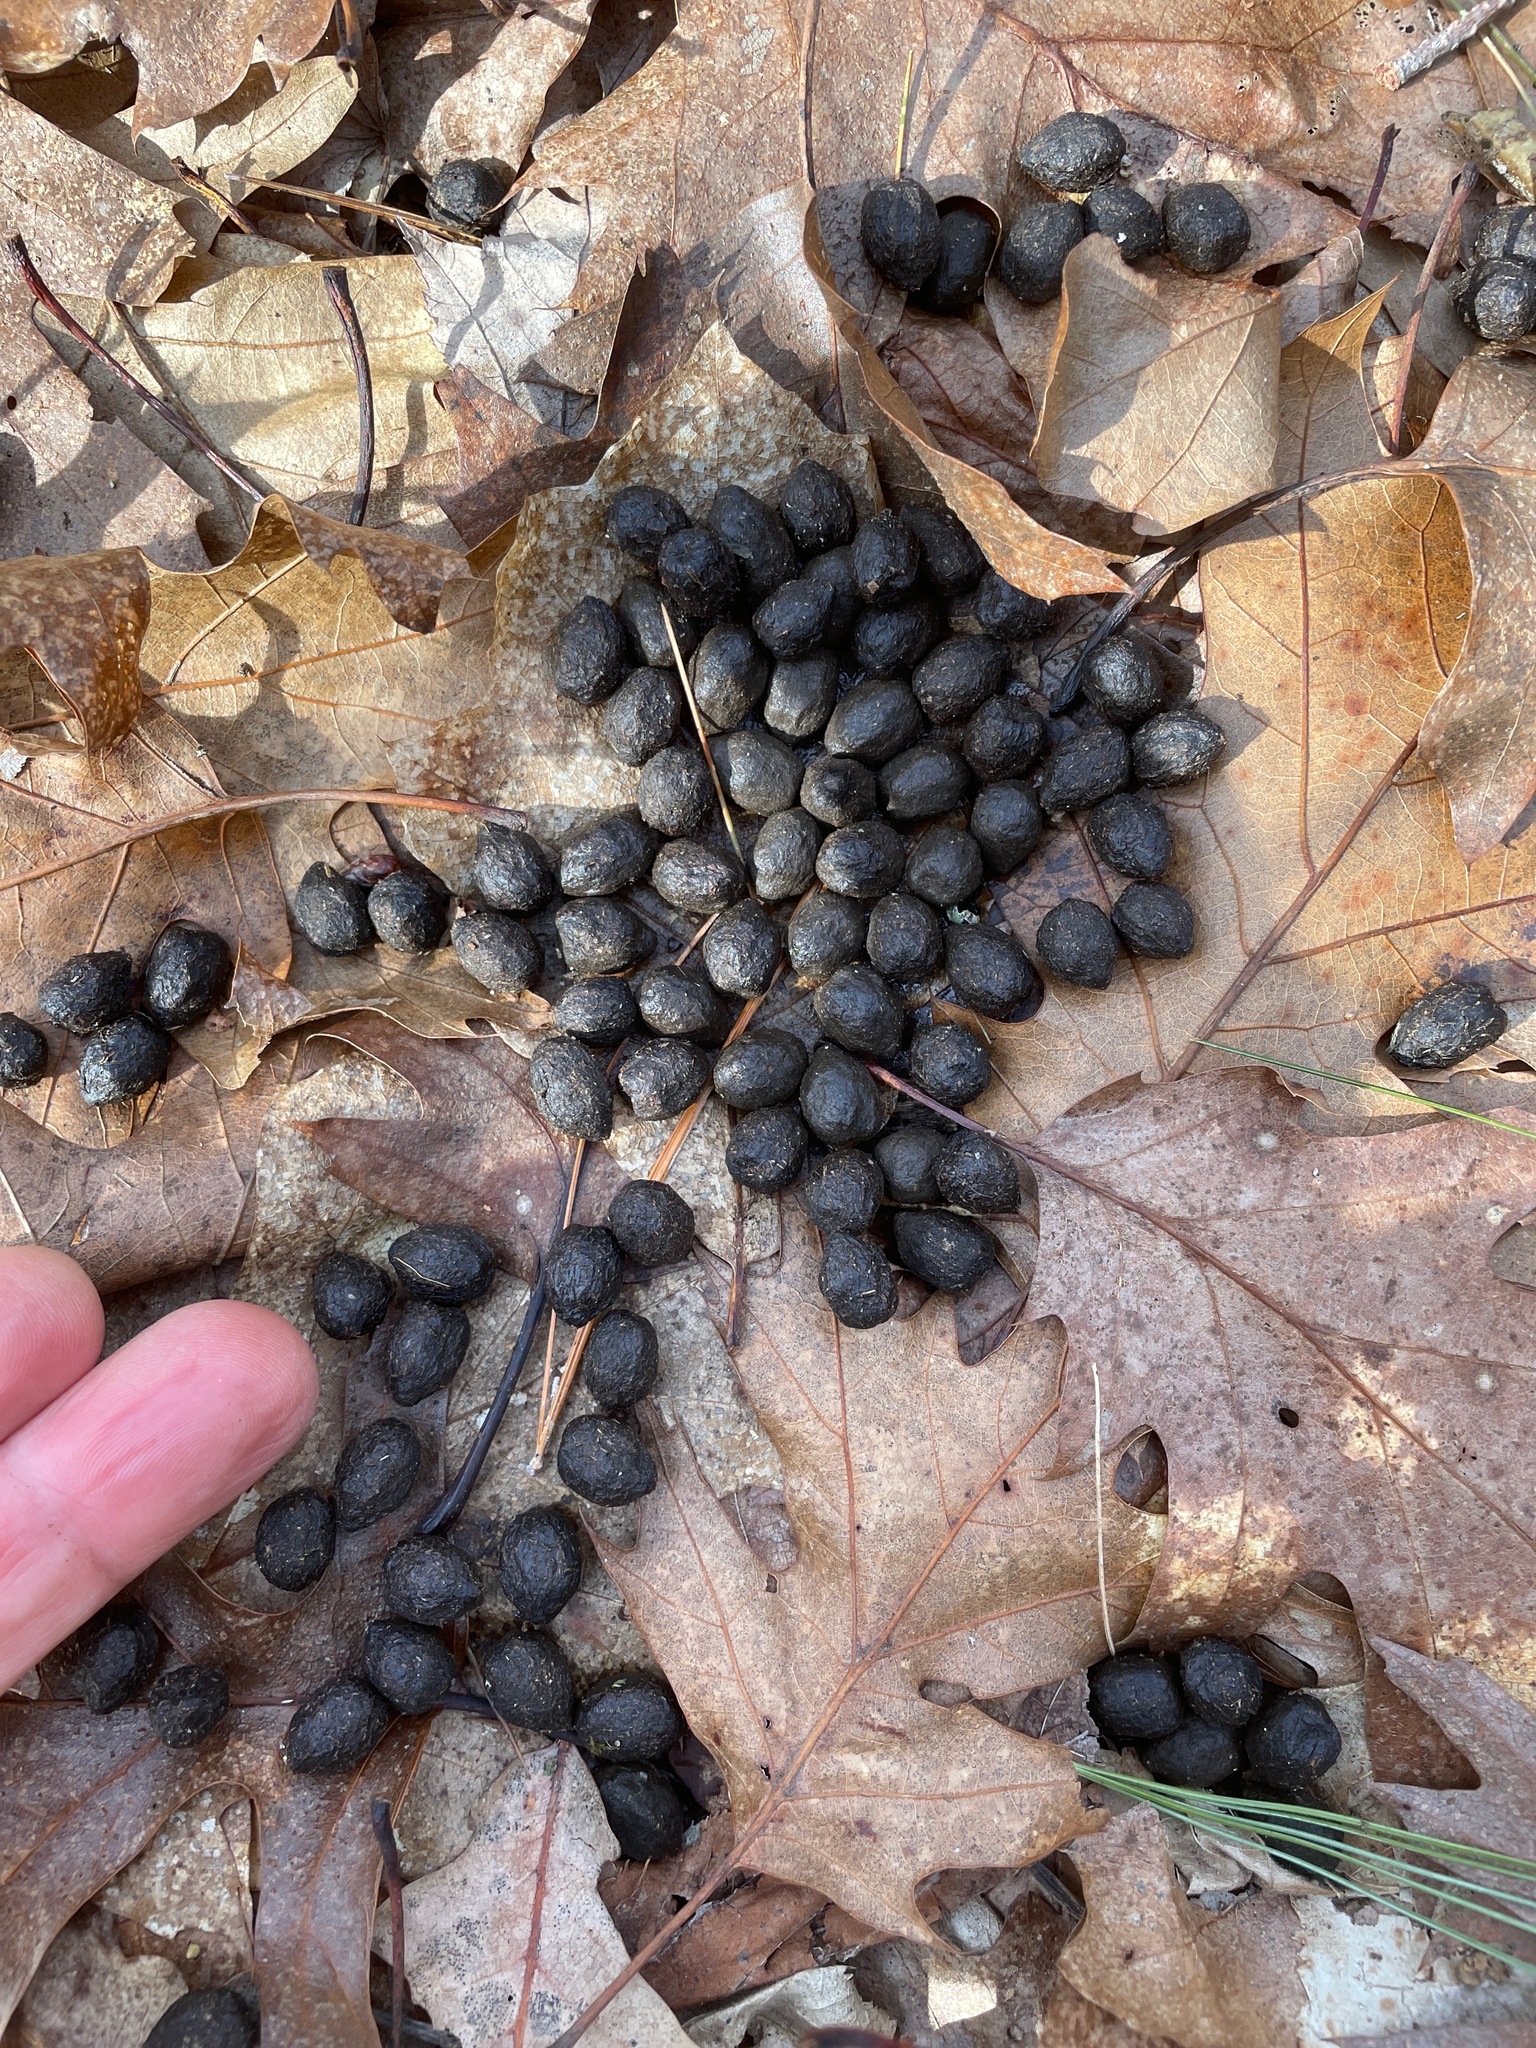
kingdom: Animalia
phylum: Chordata
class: Mammalia
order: Artiodactyla
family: Cervidae
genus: Odocoileus
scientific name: Odocoileus virginianus
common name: White-tailed deer
